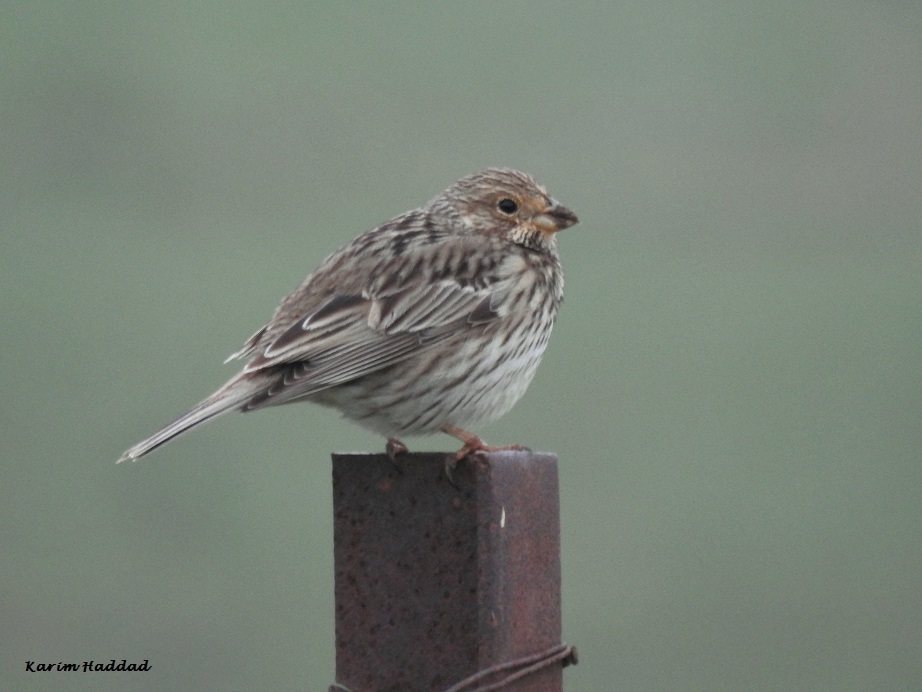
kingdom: Animalia
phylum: Chordata
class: Aves
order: Passeriformes
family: Emberizidae
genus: Emberiza
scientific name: Emberiza calandra
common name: Corn bunting
